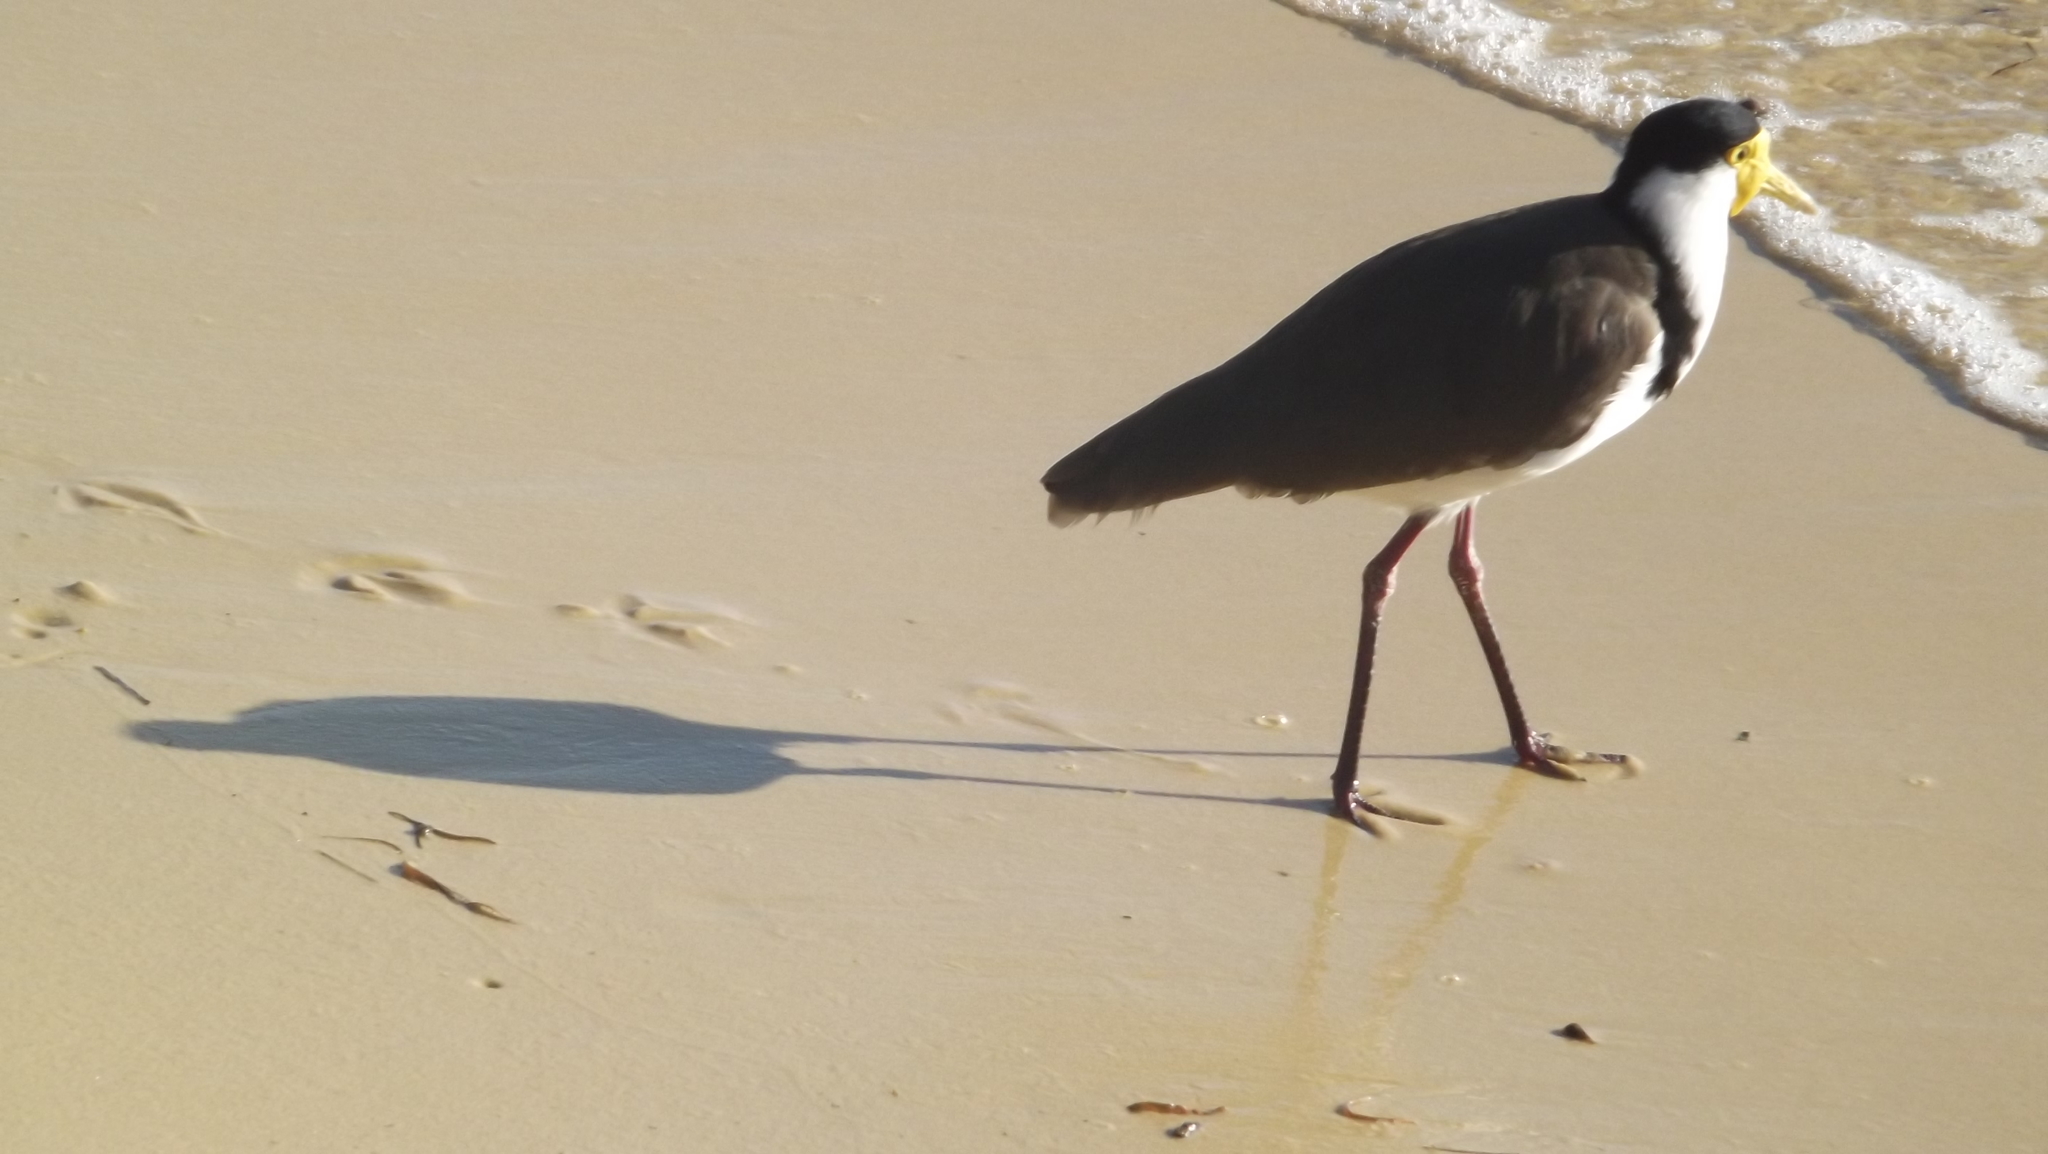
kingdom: Animalia
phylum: Chordata
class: Aves
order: Charadriiformes
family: Charadriidae
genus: Vanellus
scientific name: Vanellus miles
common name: Masked lapwing
